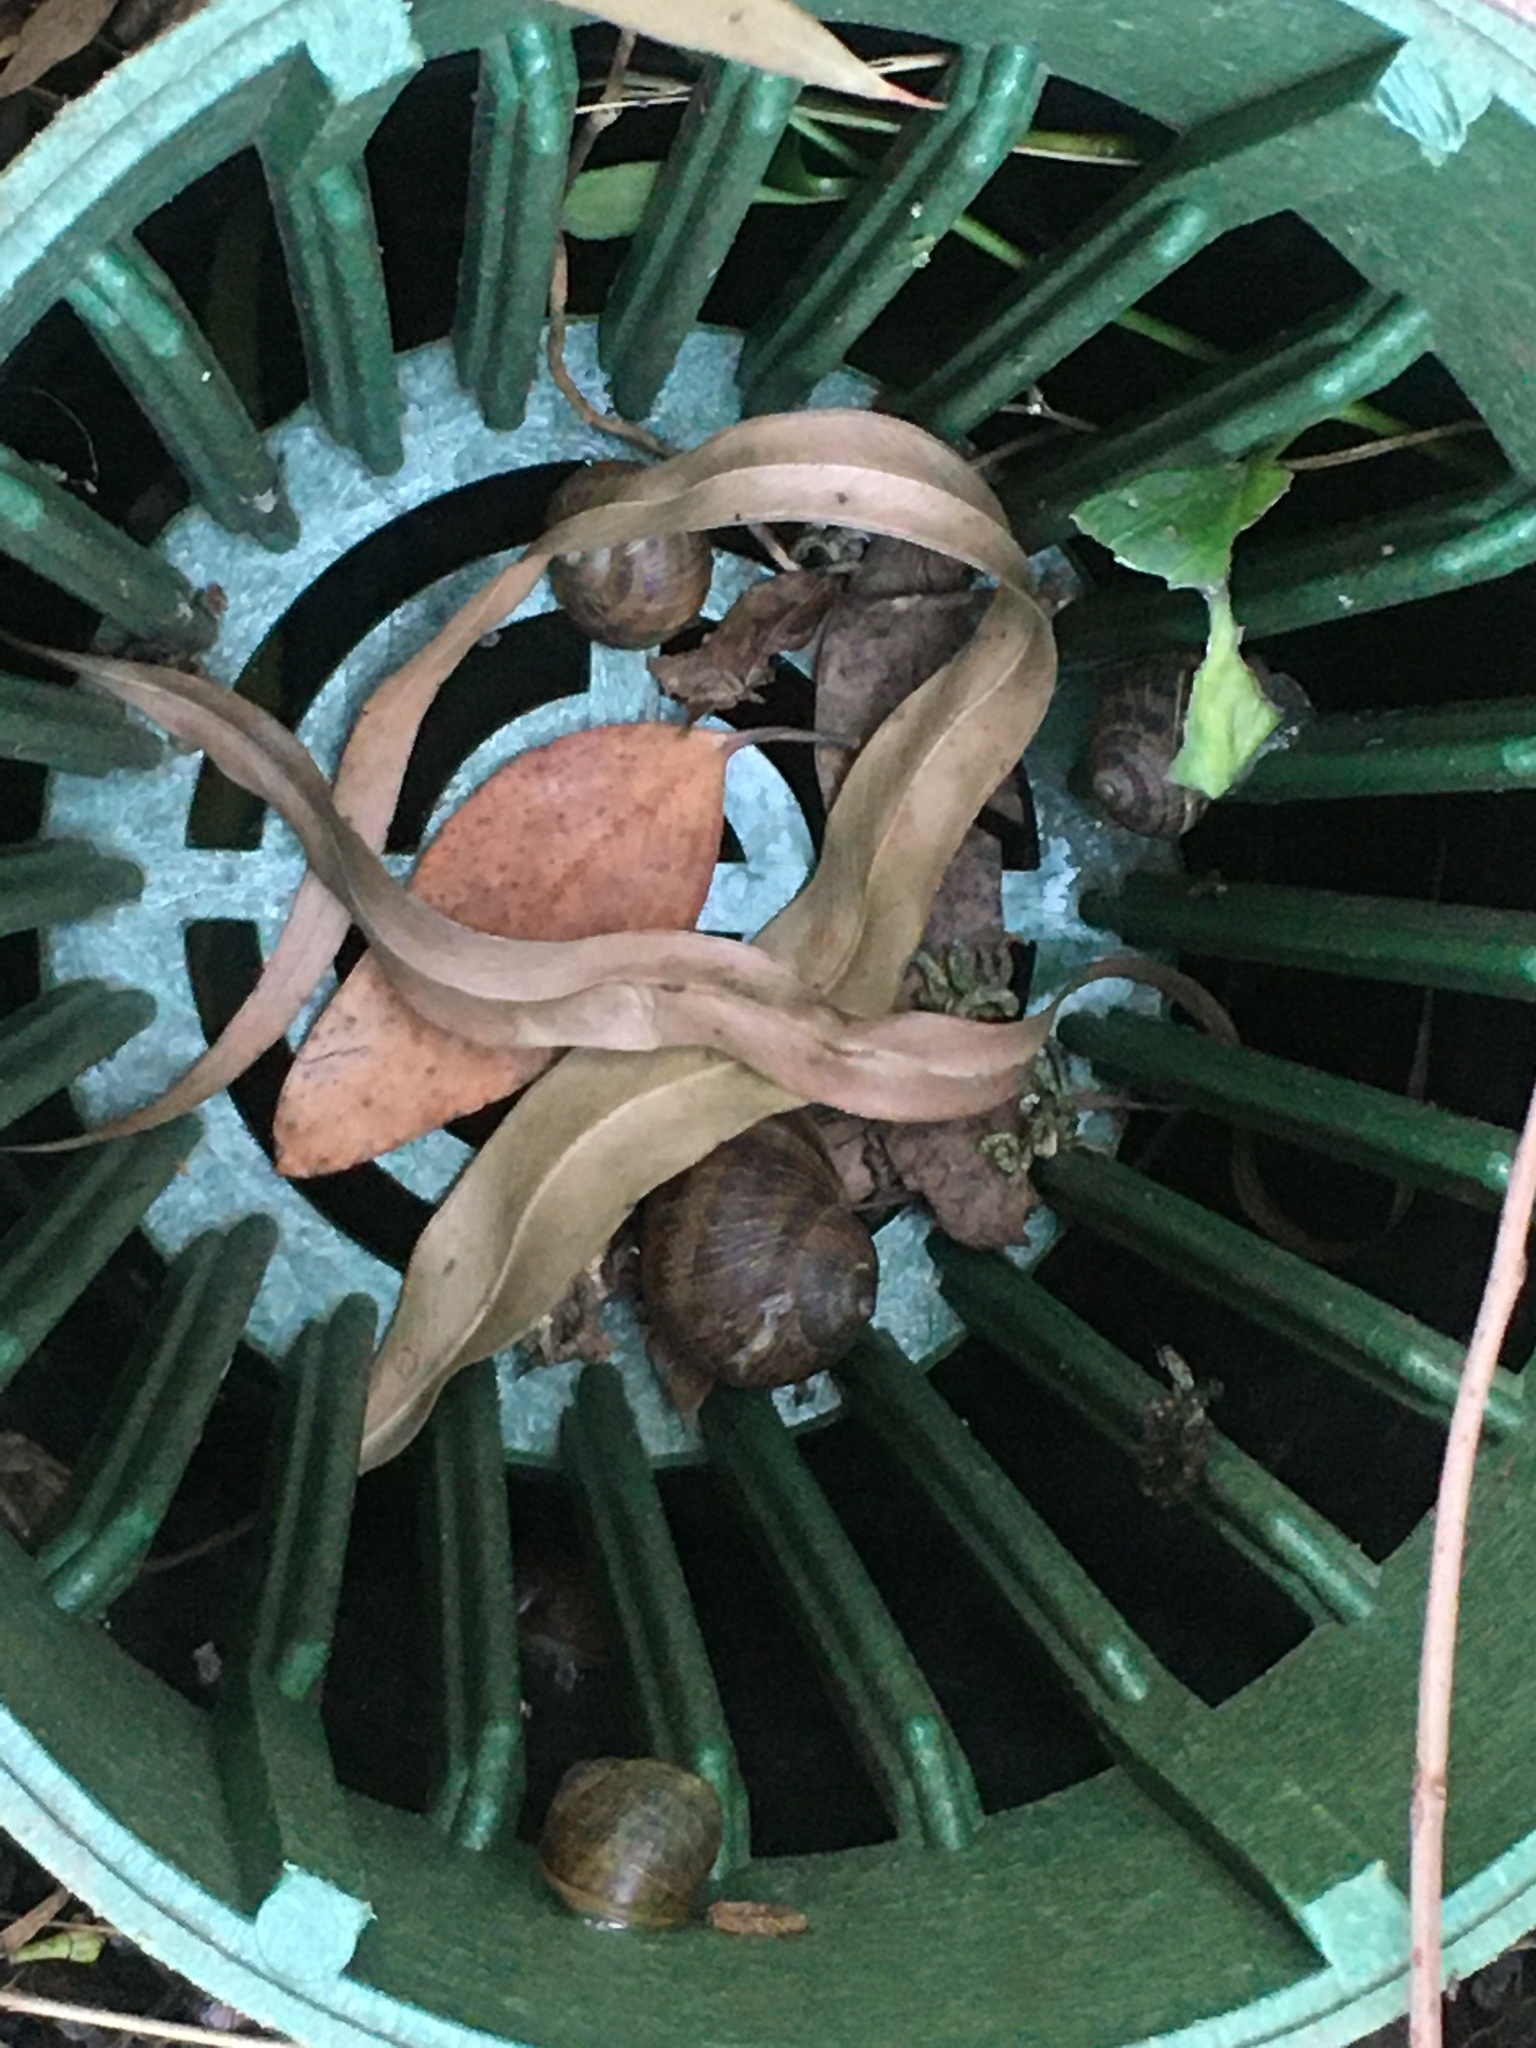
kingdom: Animalia
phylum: Mollusca
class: Gastropoda
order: Stylommatophora
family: Helicidae
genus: Cornu
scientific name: Cornu aspersum
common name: Brown garden snail
